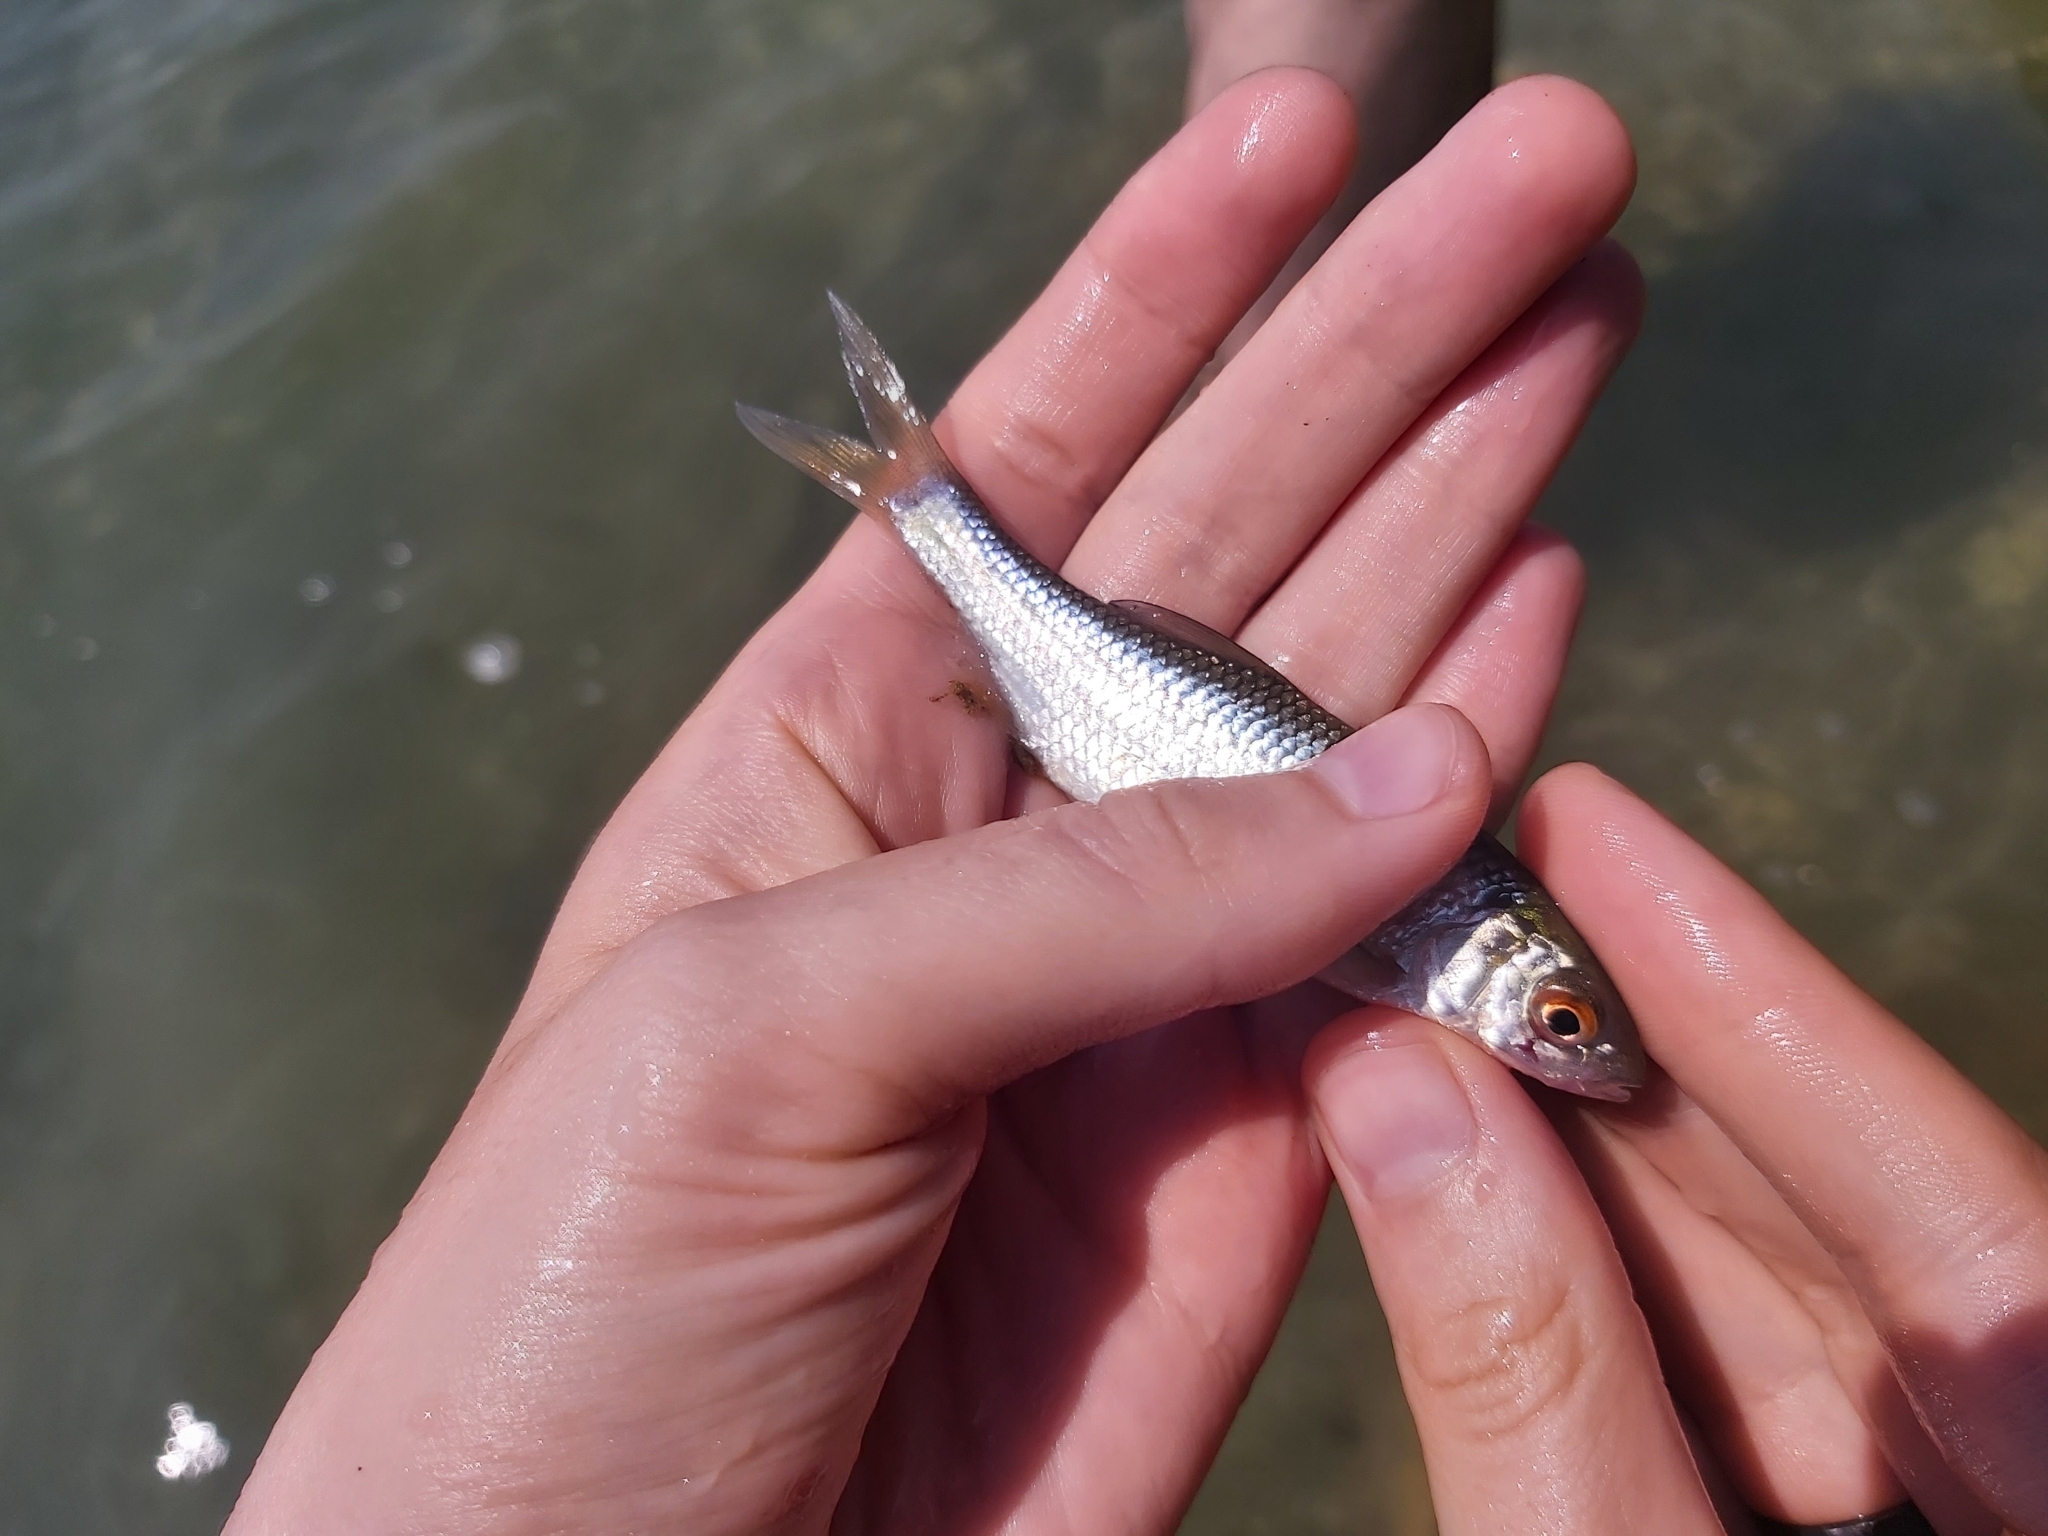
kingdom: Animalia
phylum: Chordata
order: Cypriniformes
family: Cyprinidae
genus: Rutilus
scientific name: Rutilus rutilus
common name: Roach
